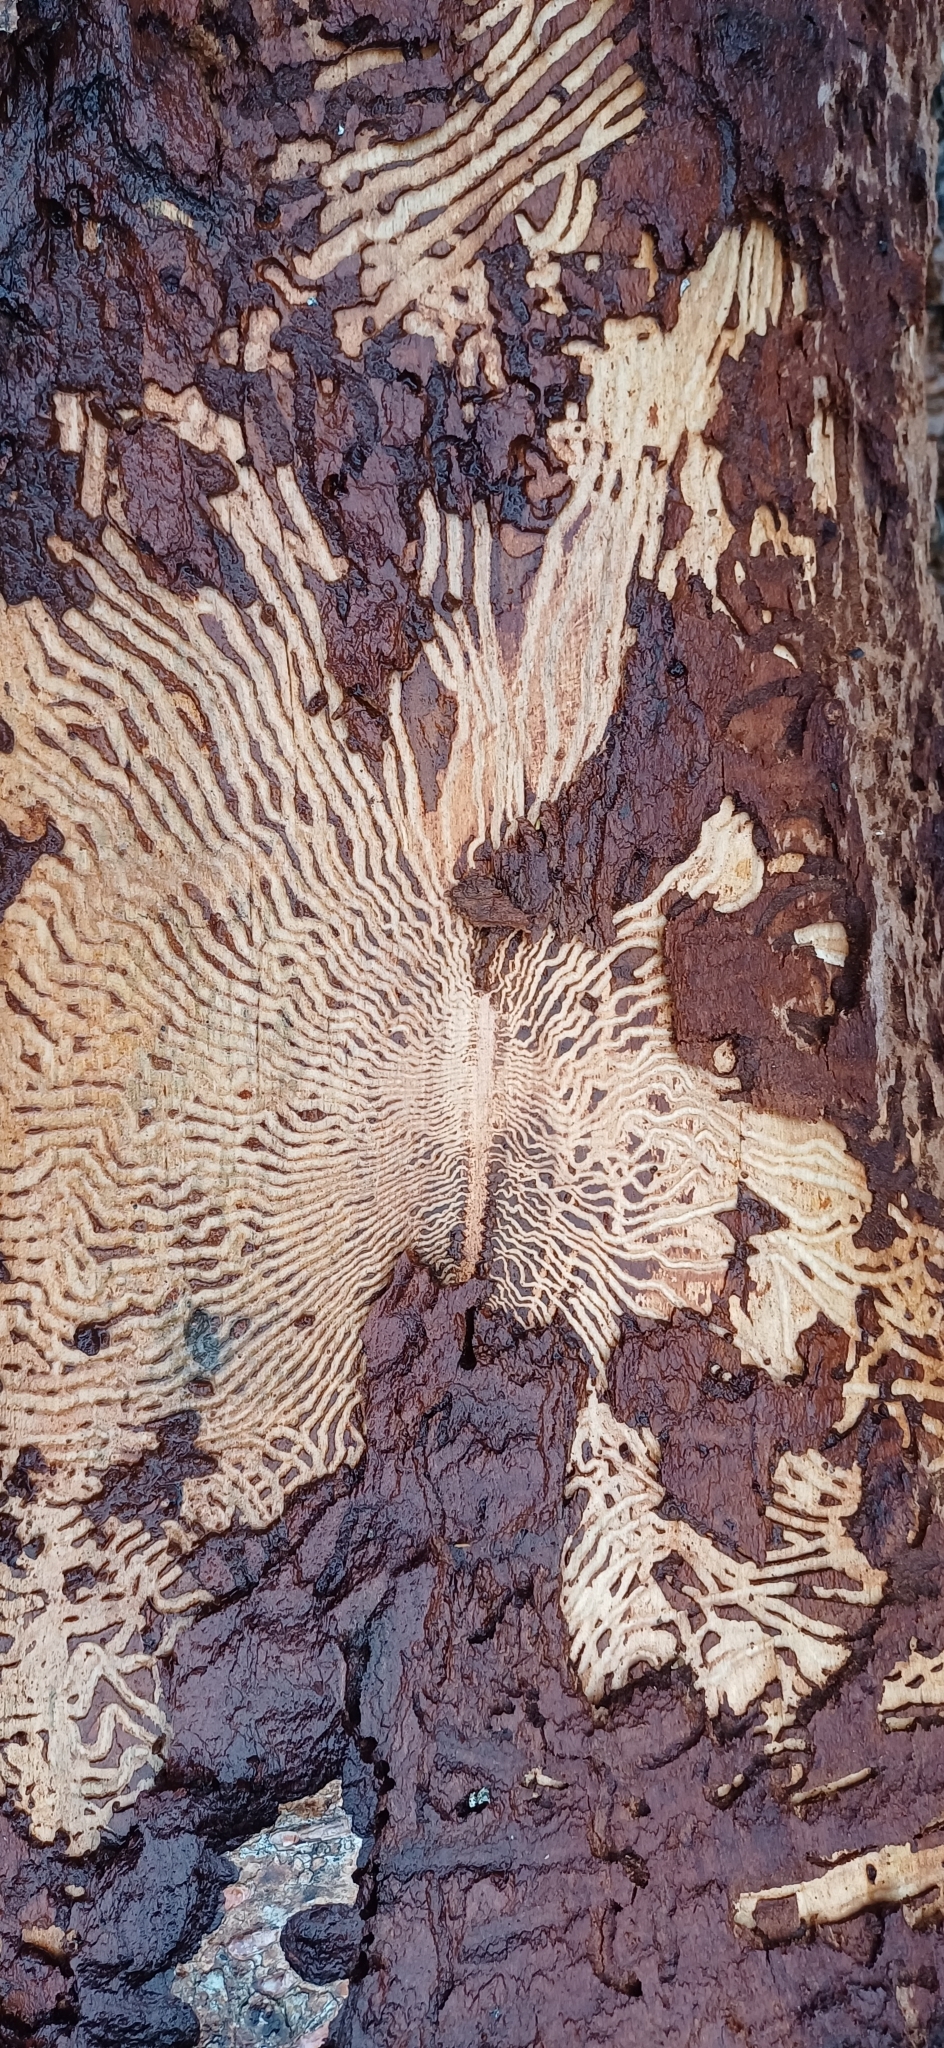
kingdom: Animalia
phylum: Arthropoda
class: Insecta
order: Coleoptera
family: Curculionidae
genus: Scolytus
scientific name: Scolytus ratzeburgii
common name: Birch bark beetle
